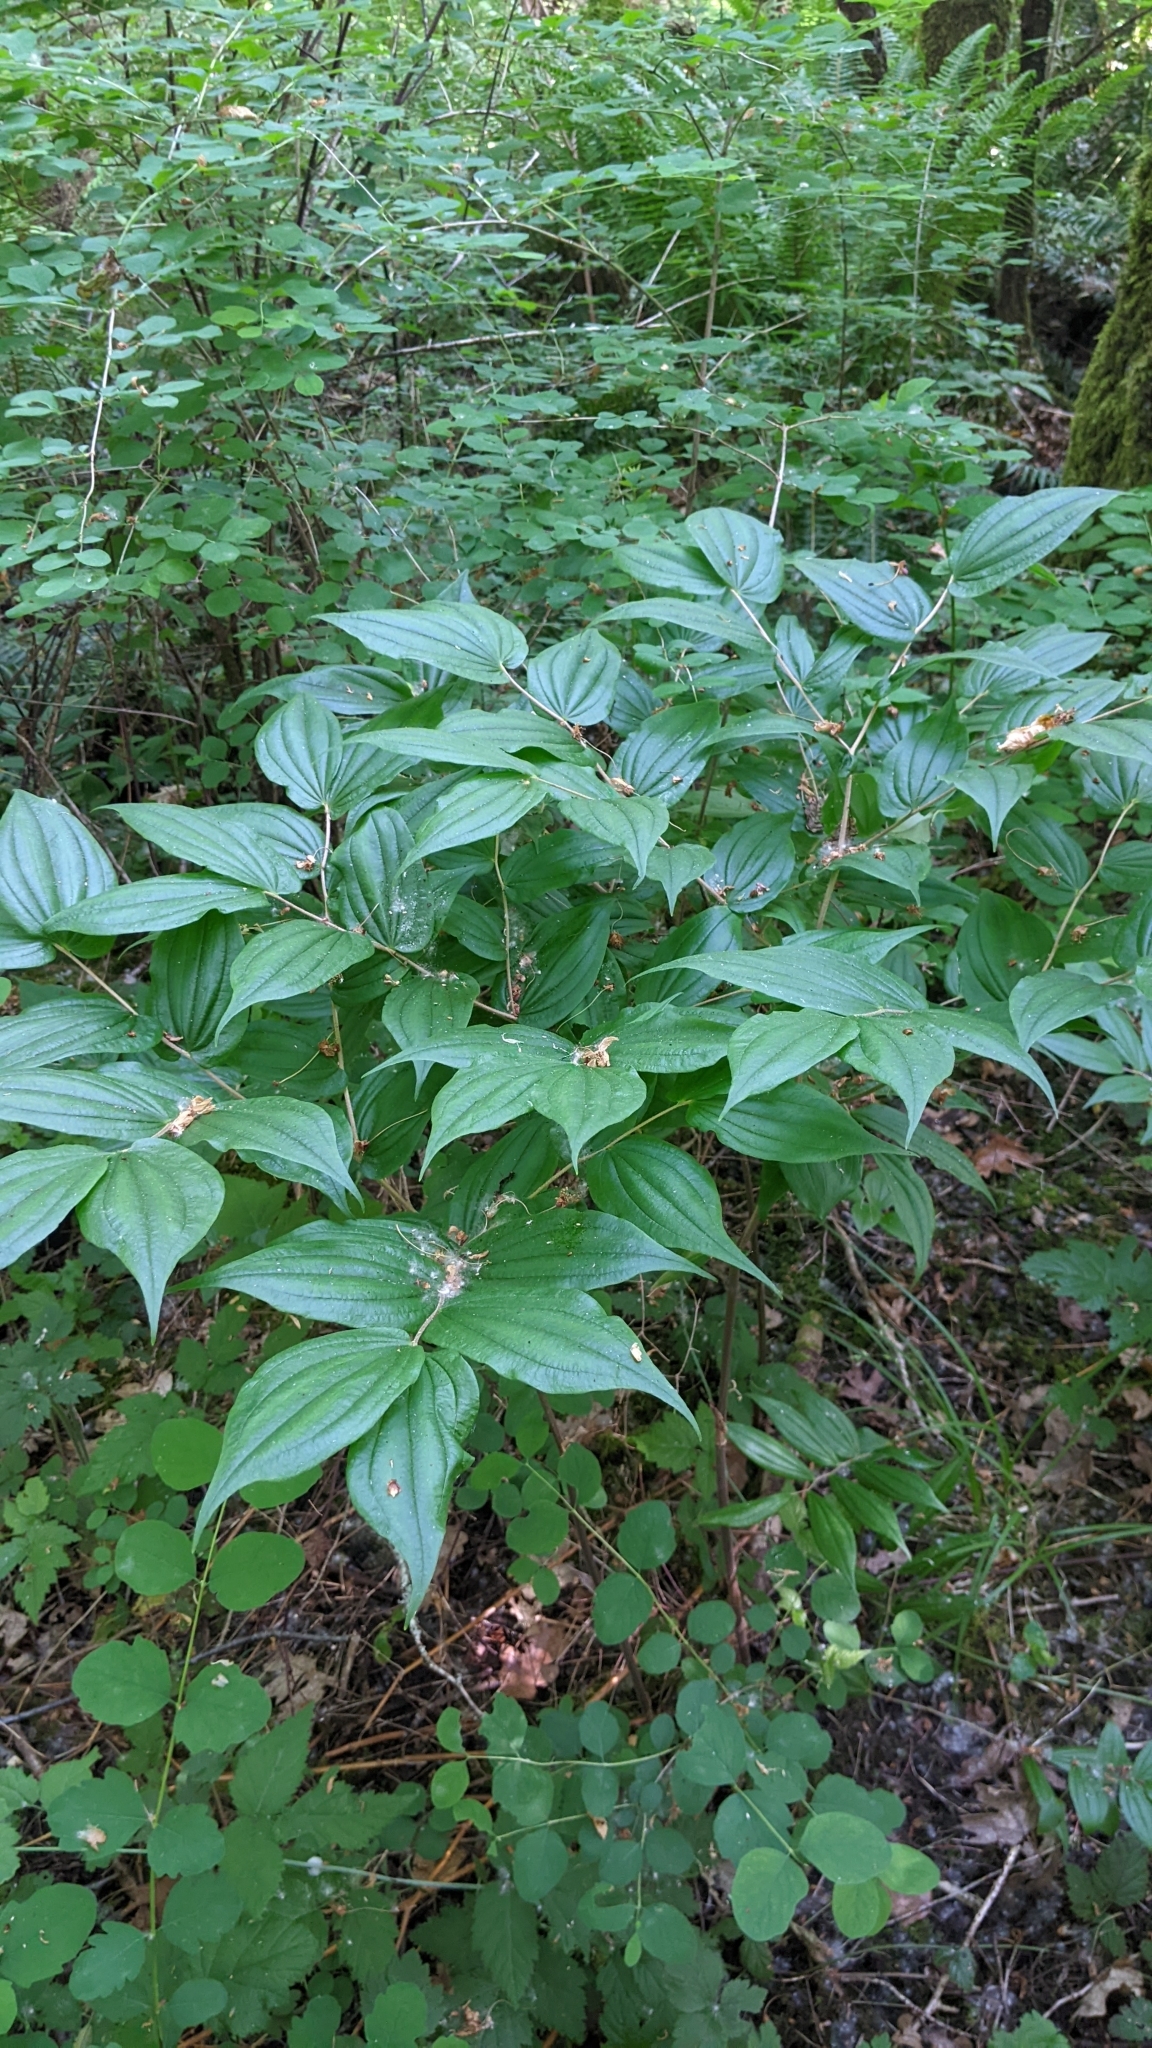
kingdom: Plantae
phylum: Tracheophyta
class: Liliopsida
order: Liliales
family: Liliaceae
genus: Prosartes
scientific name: Prosartes hookeri
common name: Fairy-bells
